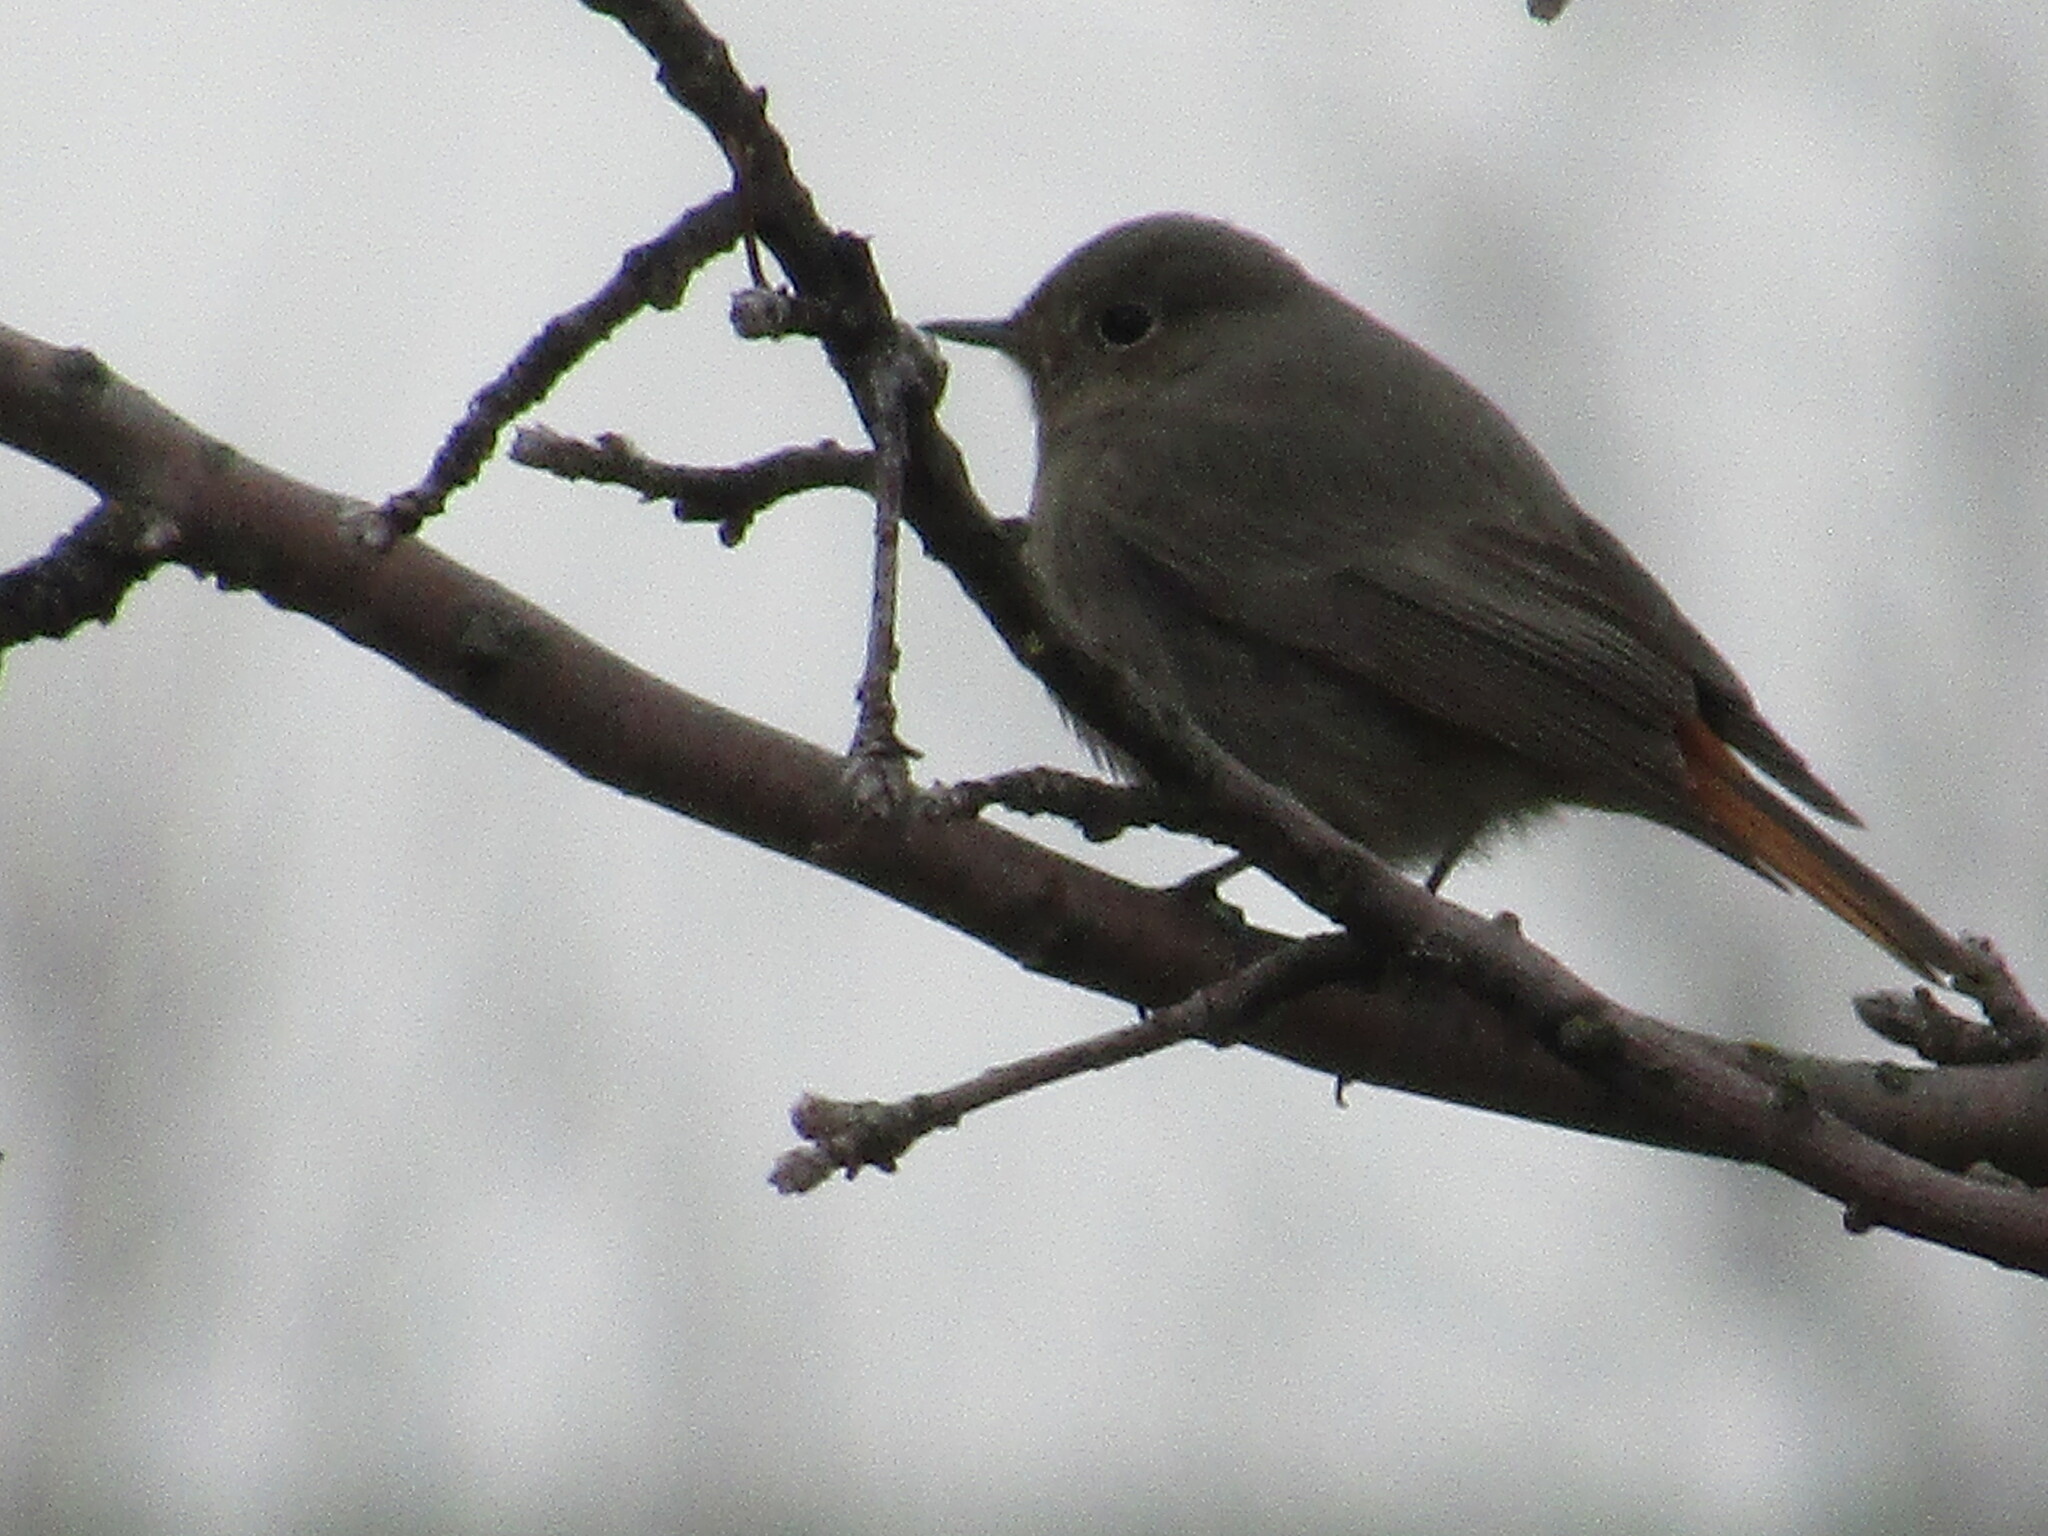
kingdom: Animalia
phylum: Chordata
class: Aves
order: Passeriformes
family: Muscicapidae
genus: Phoenicurus
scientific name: Phoenicurus ochruros
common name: Black redstart
